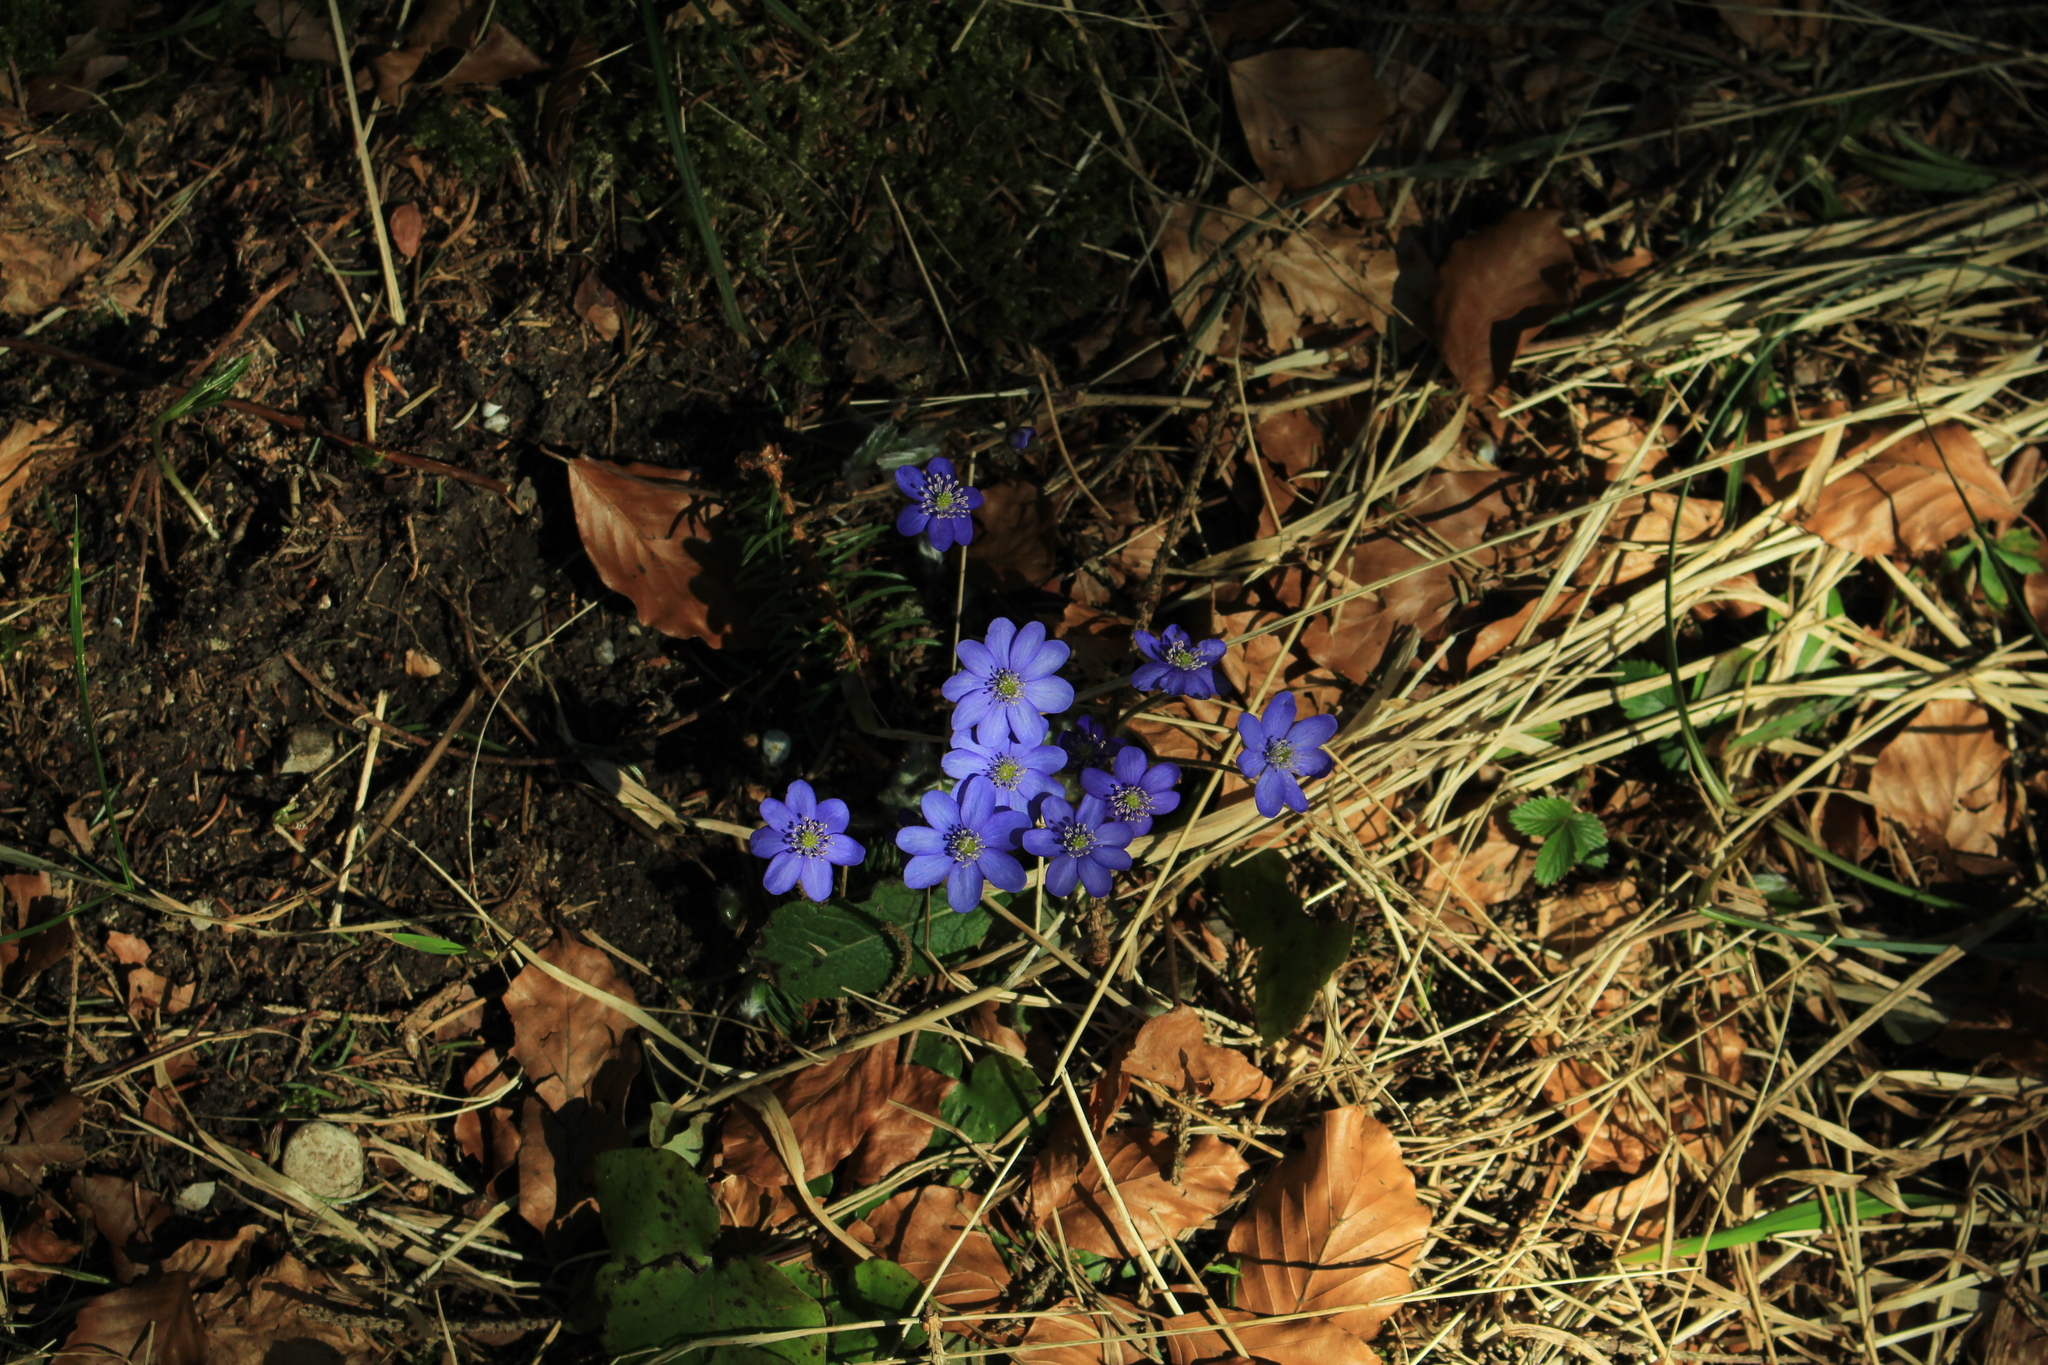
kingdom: Plantae
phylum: Tracheophyta
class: Magnoliopsida
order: Ranunculales
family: Ranunculaceae
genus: Hepatica
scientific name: Hepatica nobilis
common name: Liverleaf
